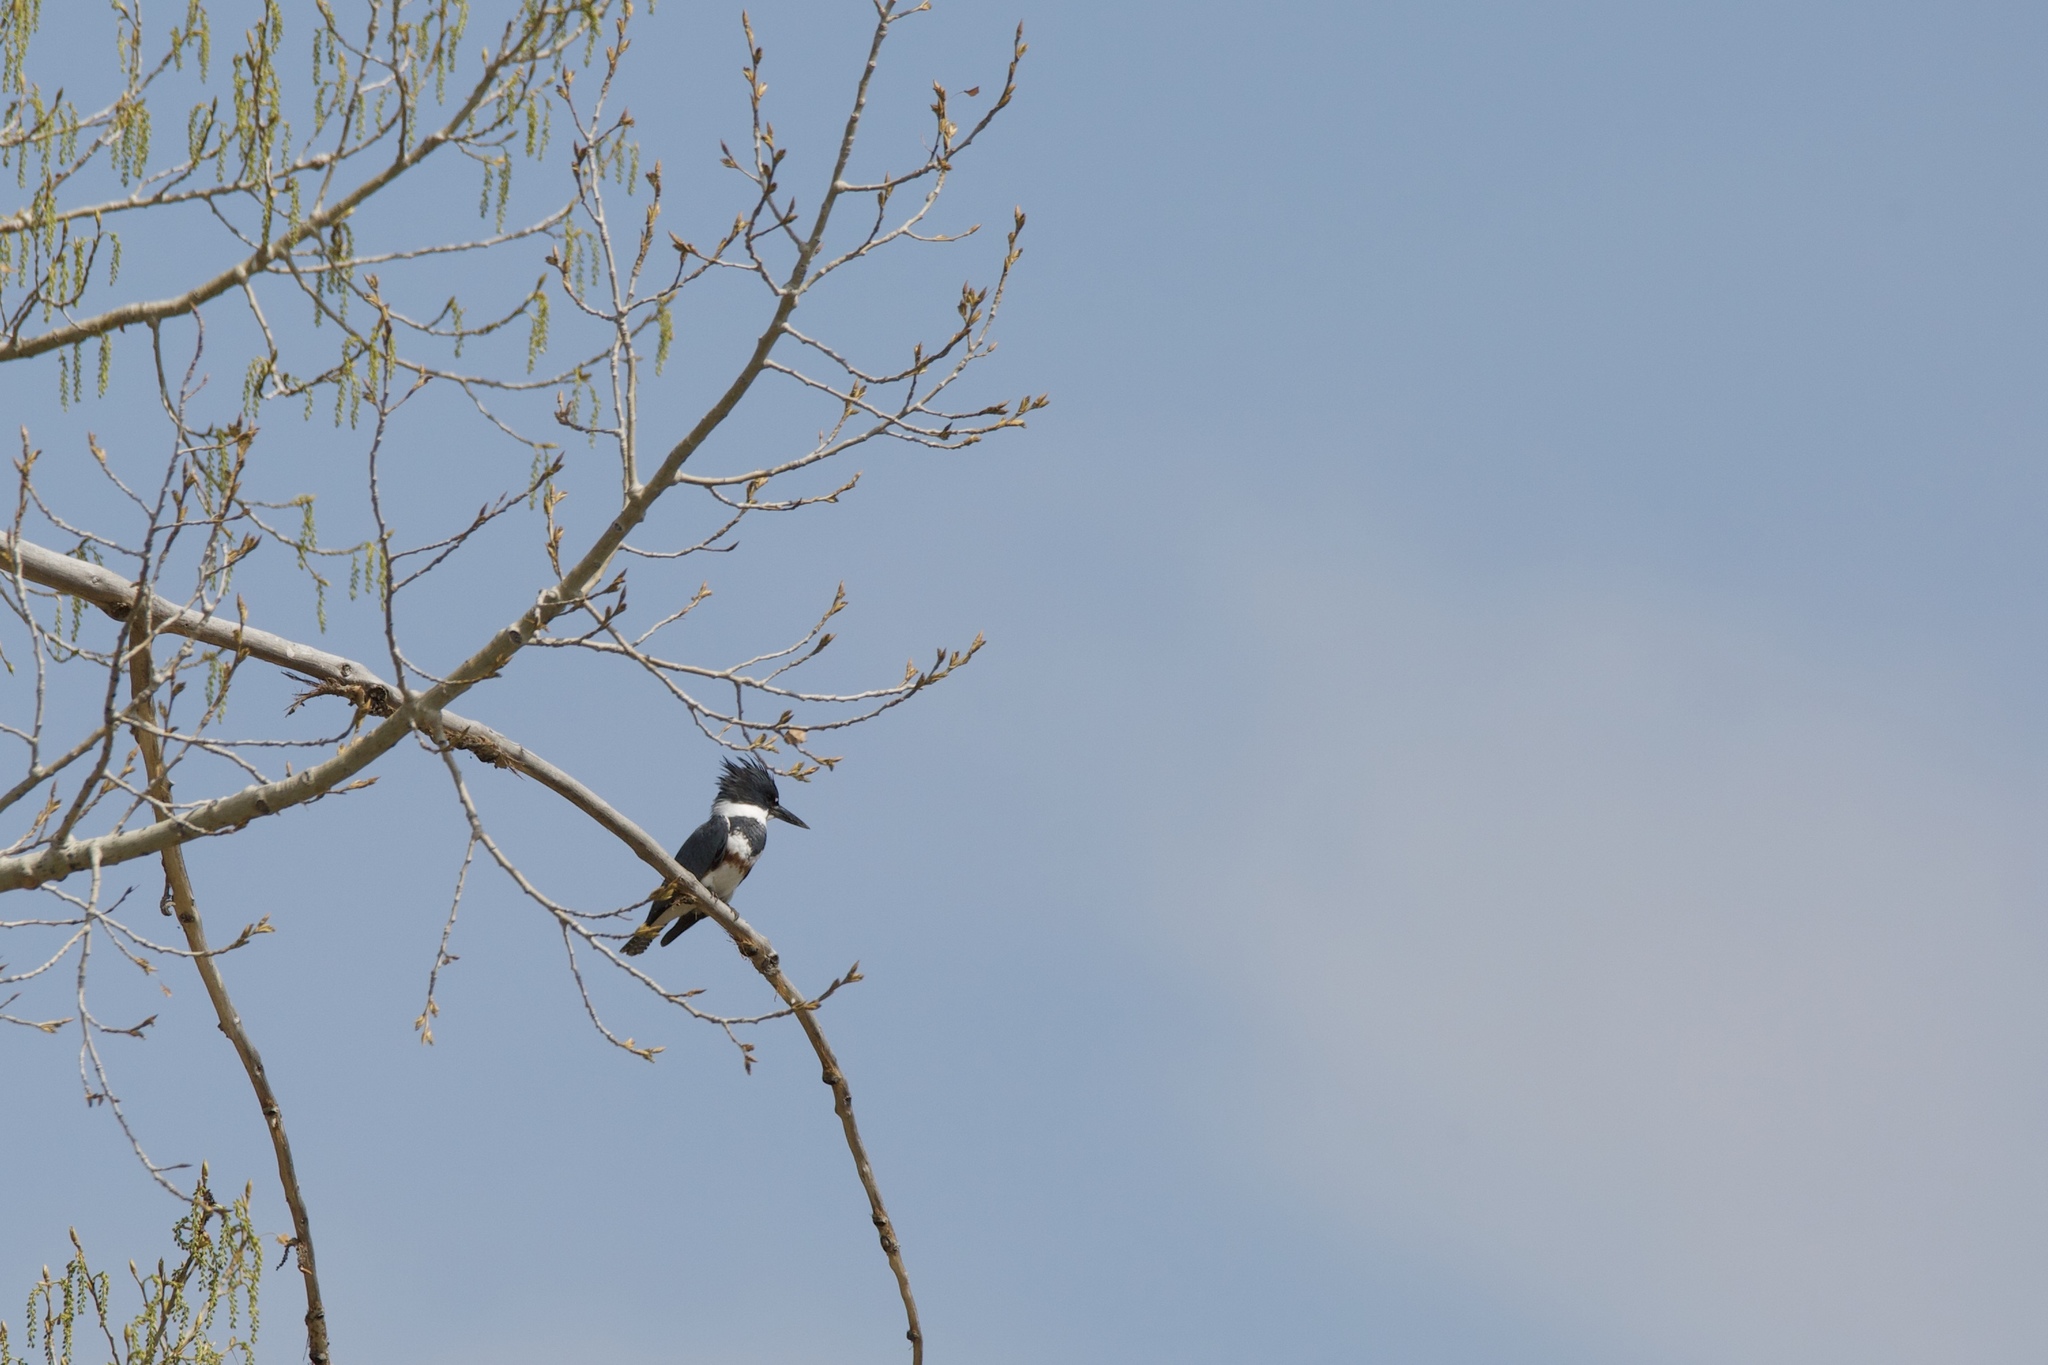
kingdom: Animalia
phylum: Chordata
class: Aves
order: Coraciiformes
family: Alcedinidae
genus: Megaceryle
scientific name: Megaceryle alcyon
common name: Belted kingfisher
